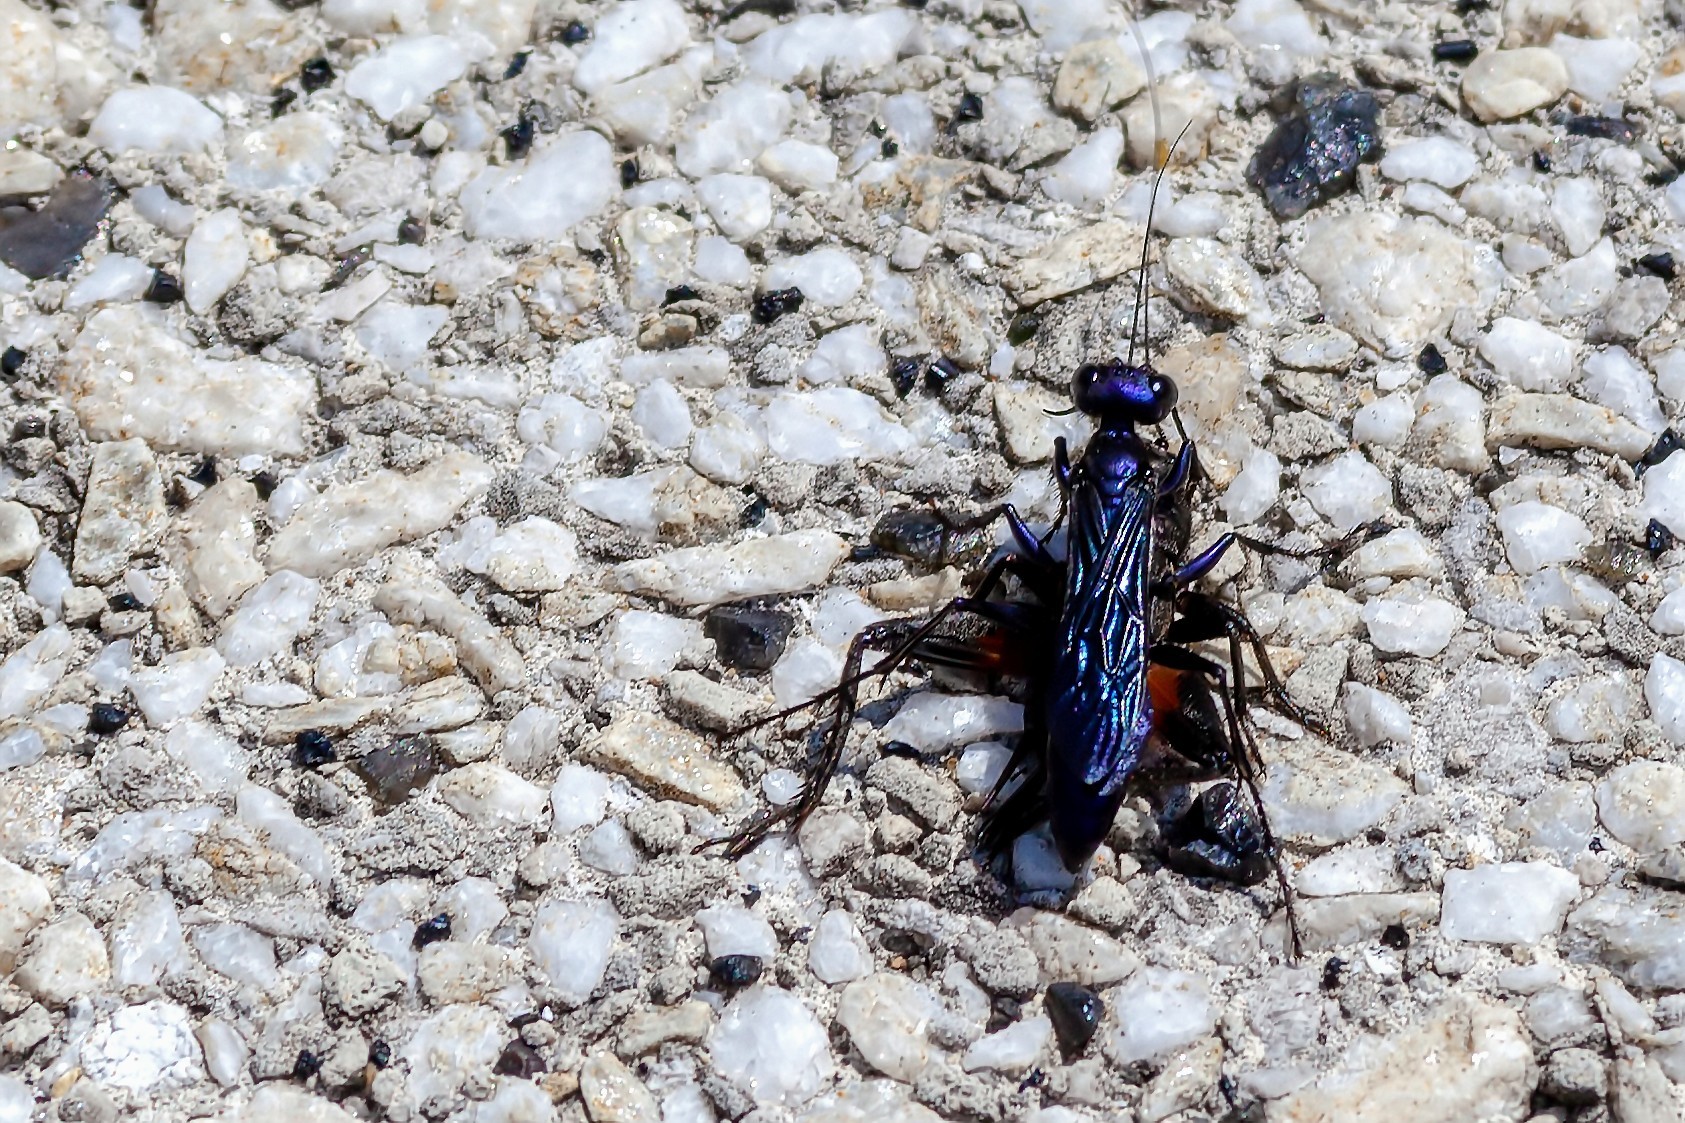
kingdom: Animalia
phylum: Arthropoda
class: Insecta
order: Hymenoptera
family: Sphecidae
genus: Chlorion
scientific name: Chlorion aerarium
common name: Steel-blue cricket hunter
